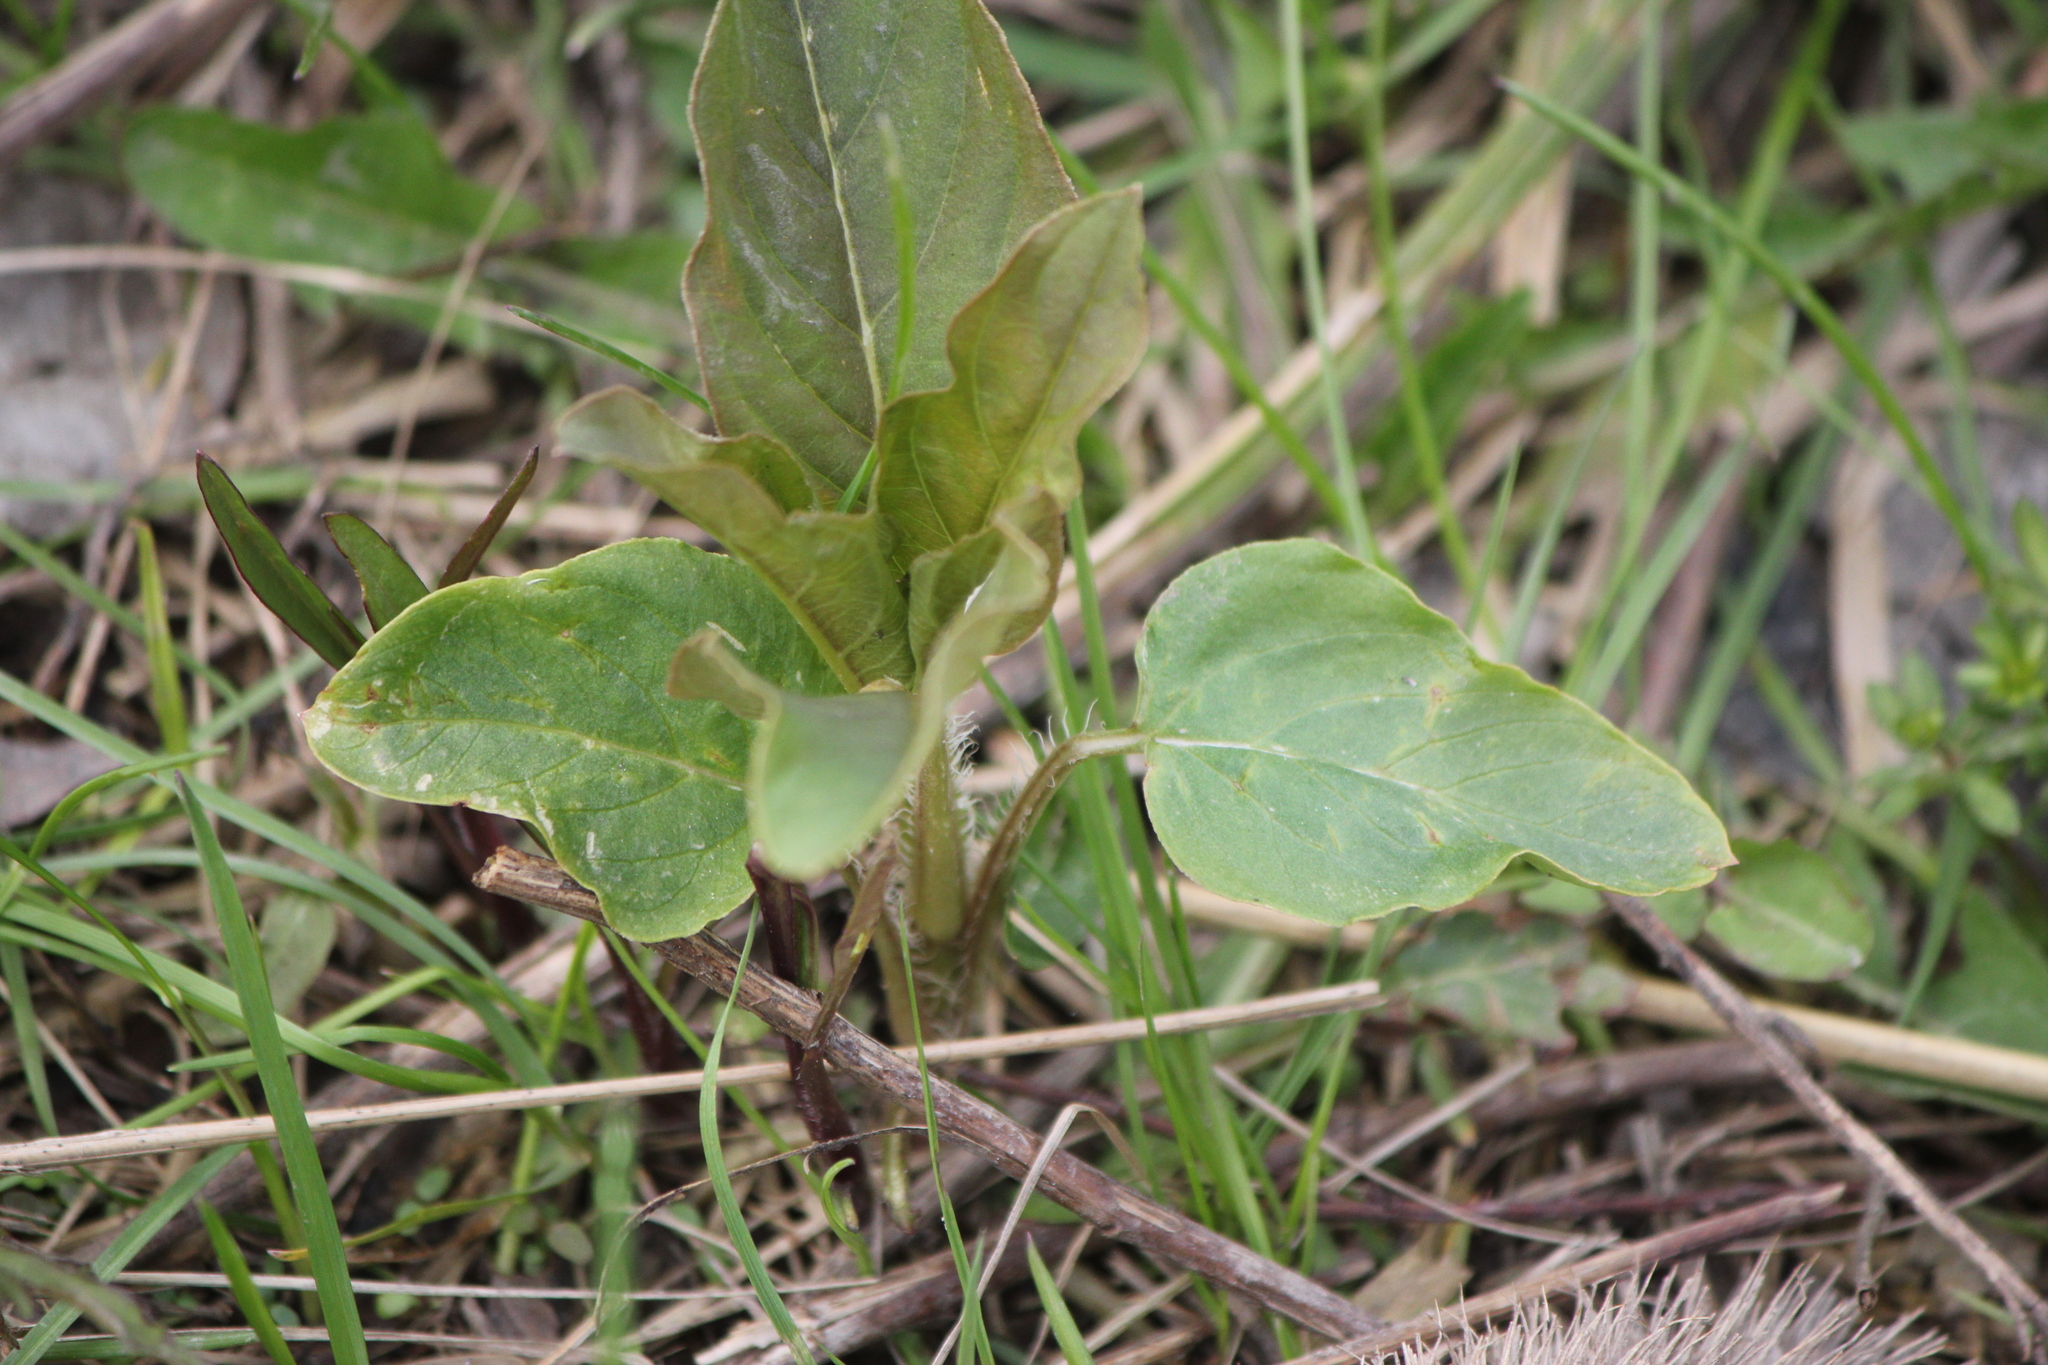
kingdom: Plantae
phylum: Tracheophyta
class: Magnoliopsida
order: Ericales
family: Primulaceae
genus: Lysimachia
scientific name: Lysimachia ciliata
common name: Fringed loosestrife
